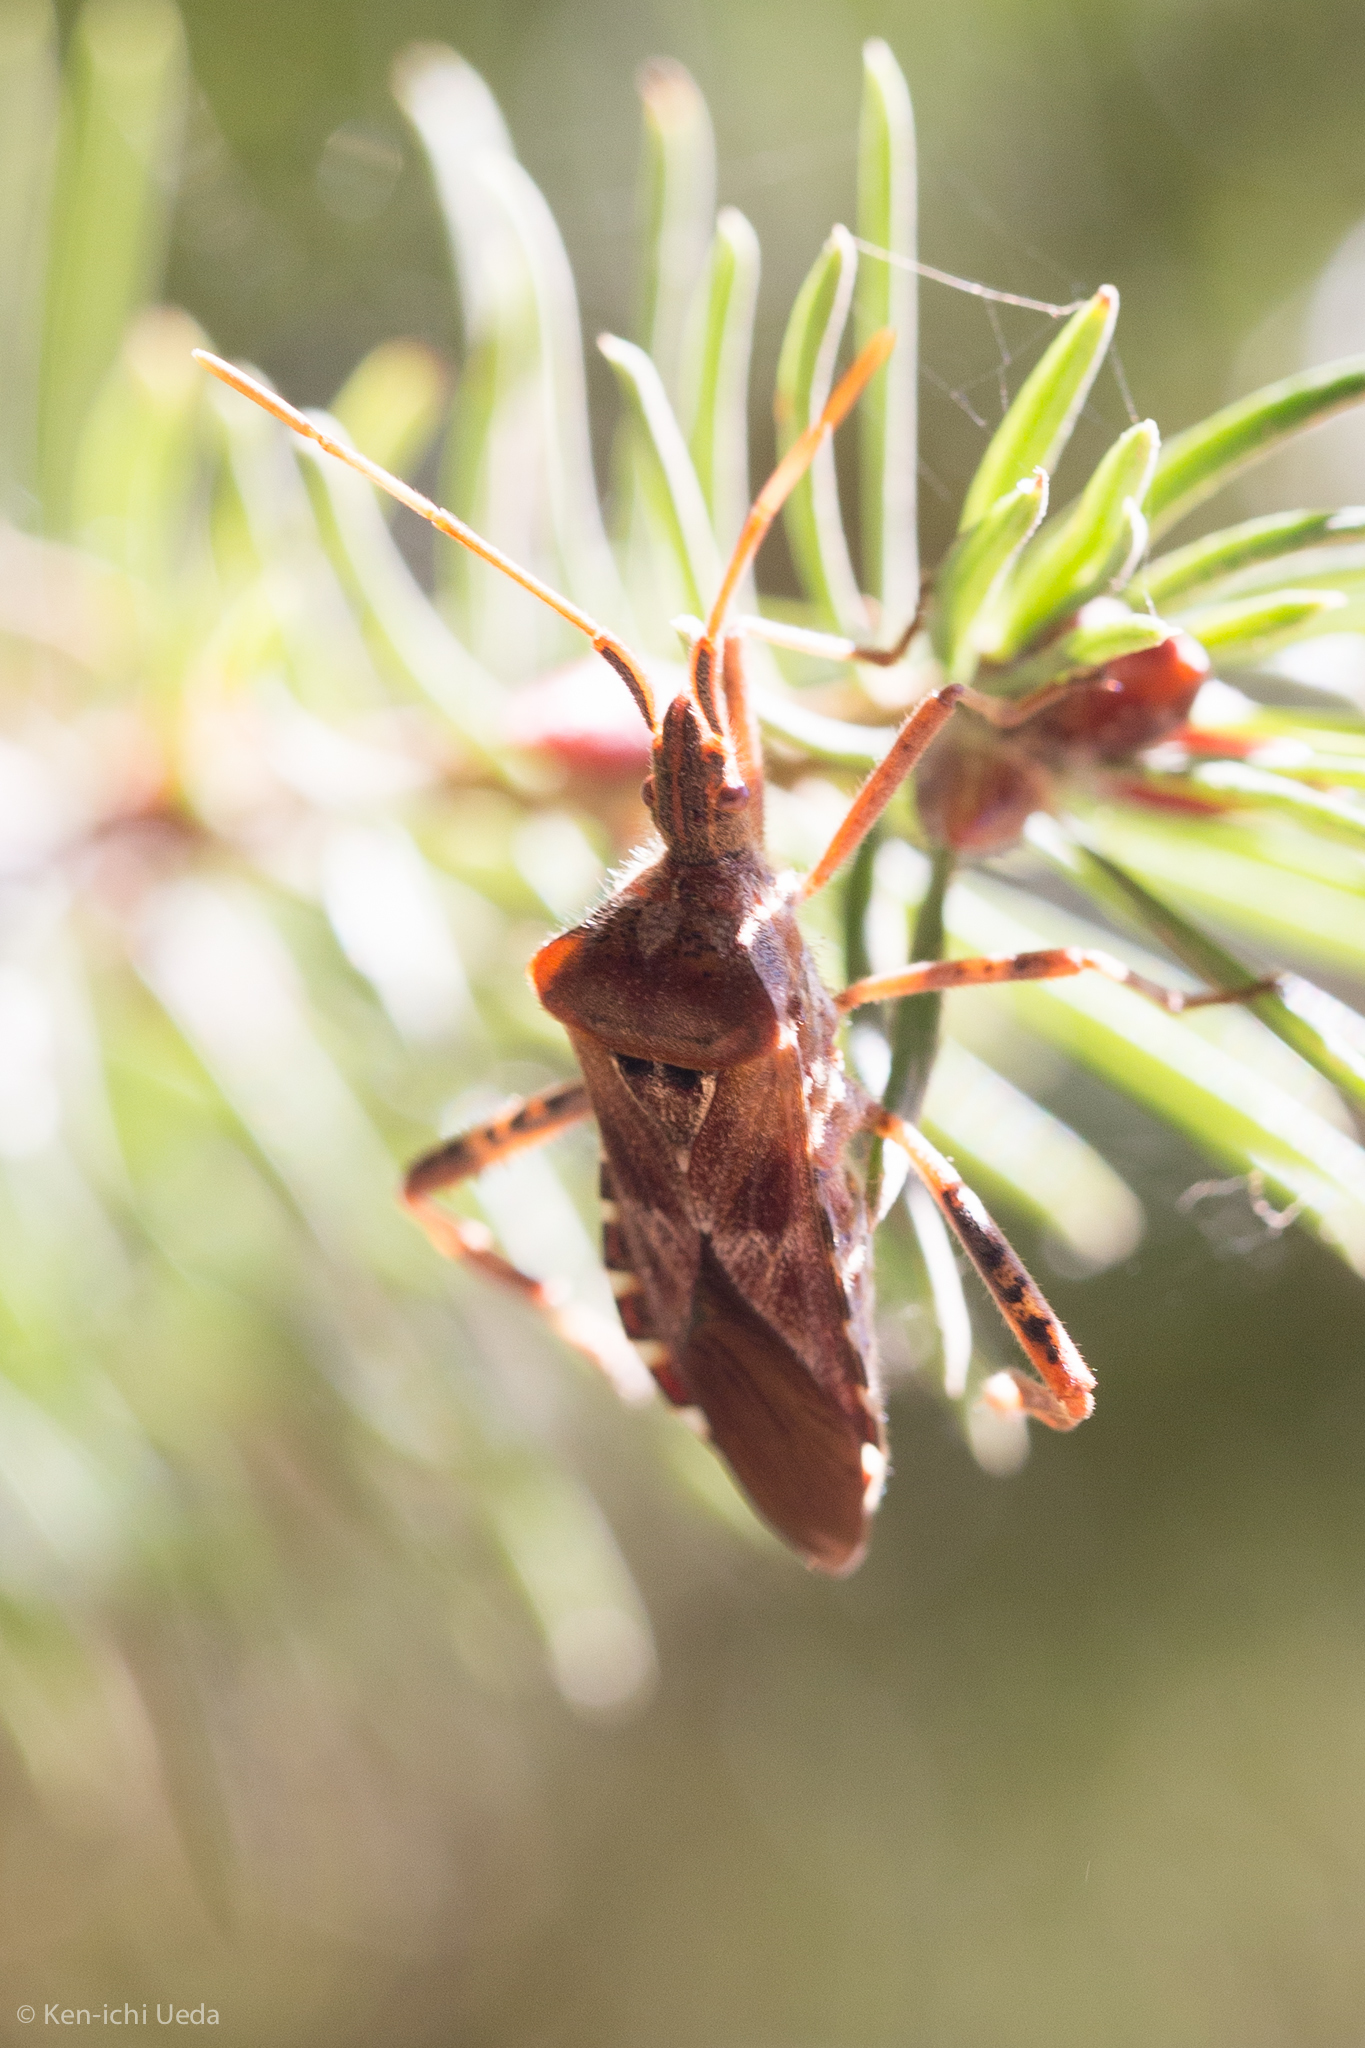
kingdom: Animalia
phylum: Arthropoda
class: Insecta
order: Hemiptera
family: Coreidae
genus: Leptoglossus
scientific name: Leptoglossus occidentalis
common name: Western conifer-seed bug
